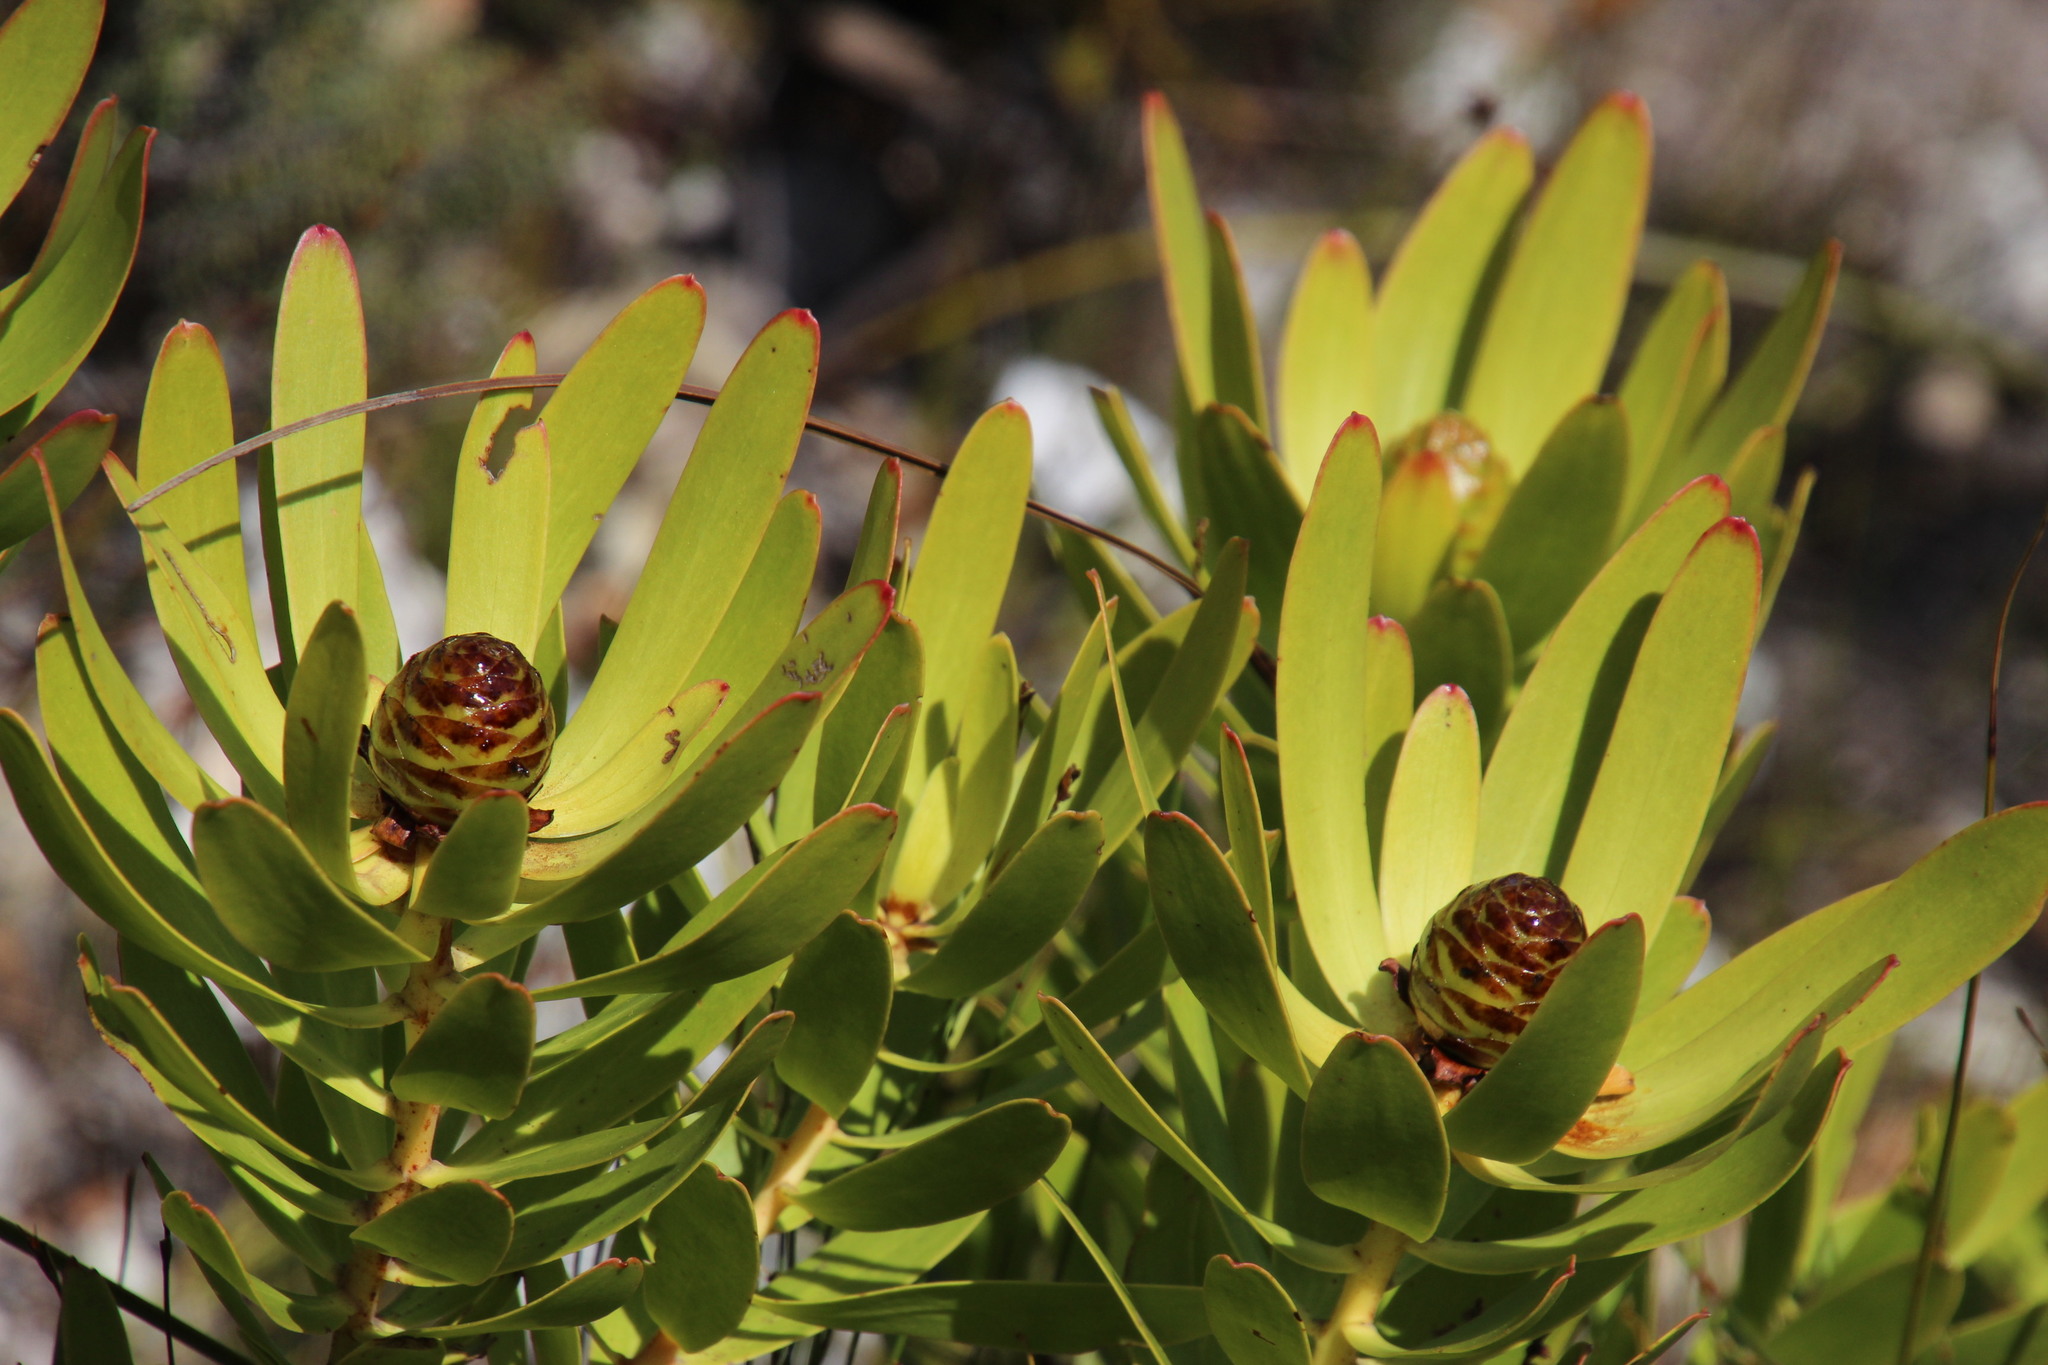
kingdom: Plantae
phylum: Tracheophyta
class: Magnoliopsida
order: Proteales
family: Proteaceae
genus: Leucadendron
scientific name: Leucadendron microcephalum
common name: Oilbract conebush
